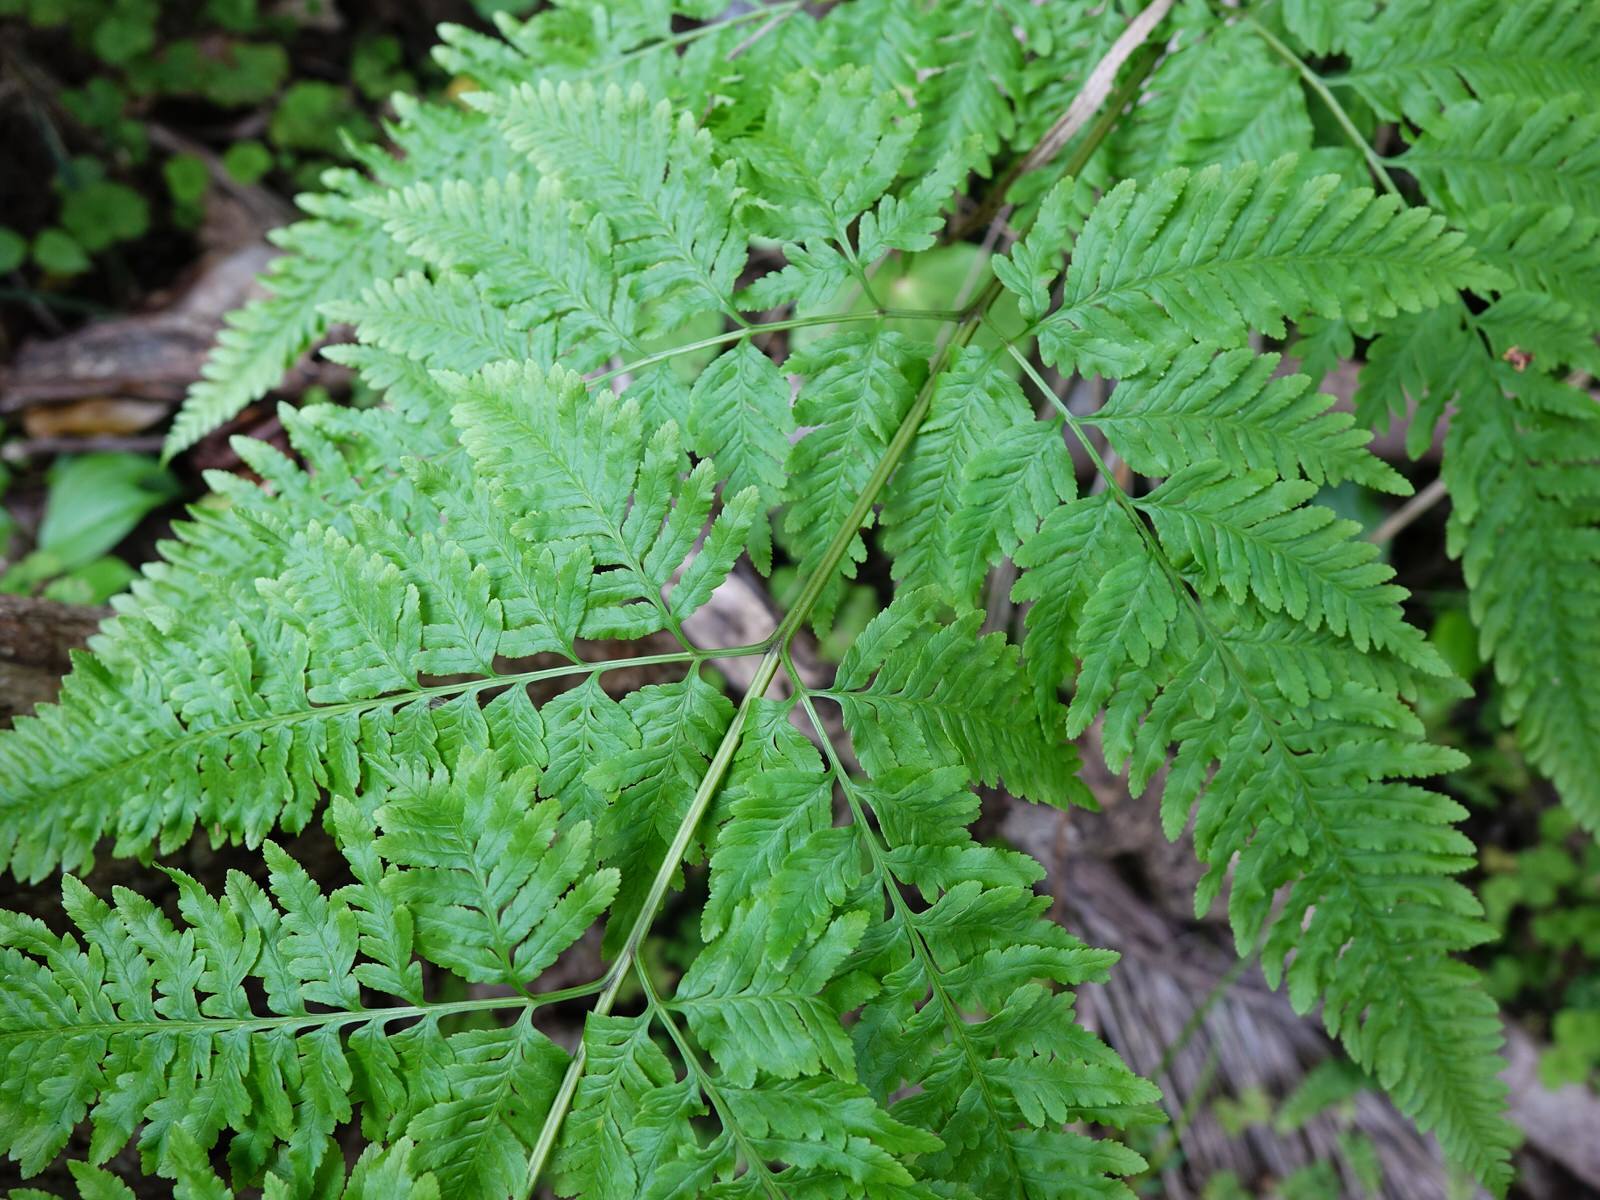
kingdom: Plantae
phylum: Tracheophyta
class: Polypodiopsida
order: Polypodiales
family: Pteridaceae
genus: Pteris
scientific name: Pteris tremula
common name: Australian brake
